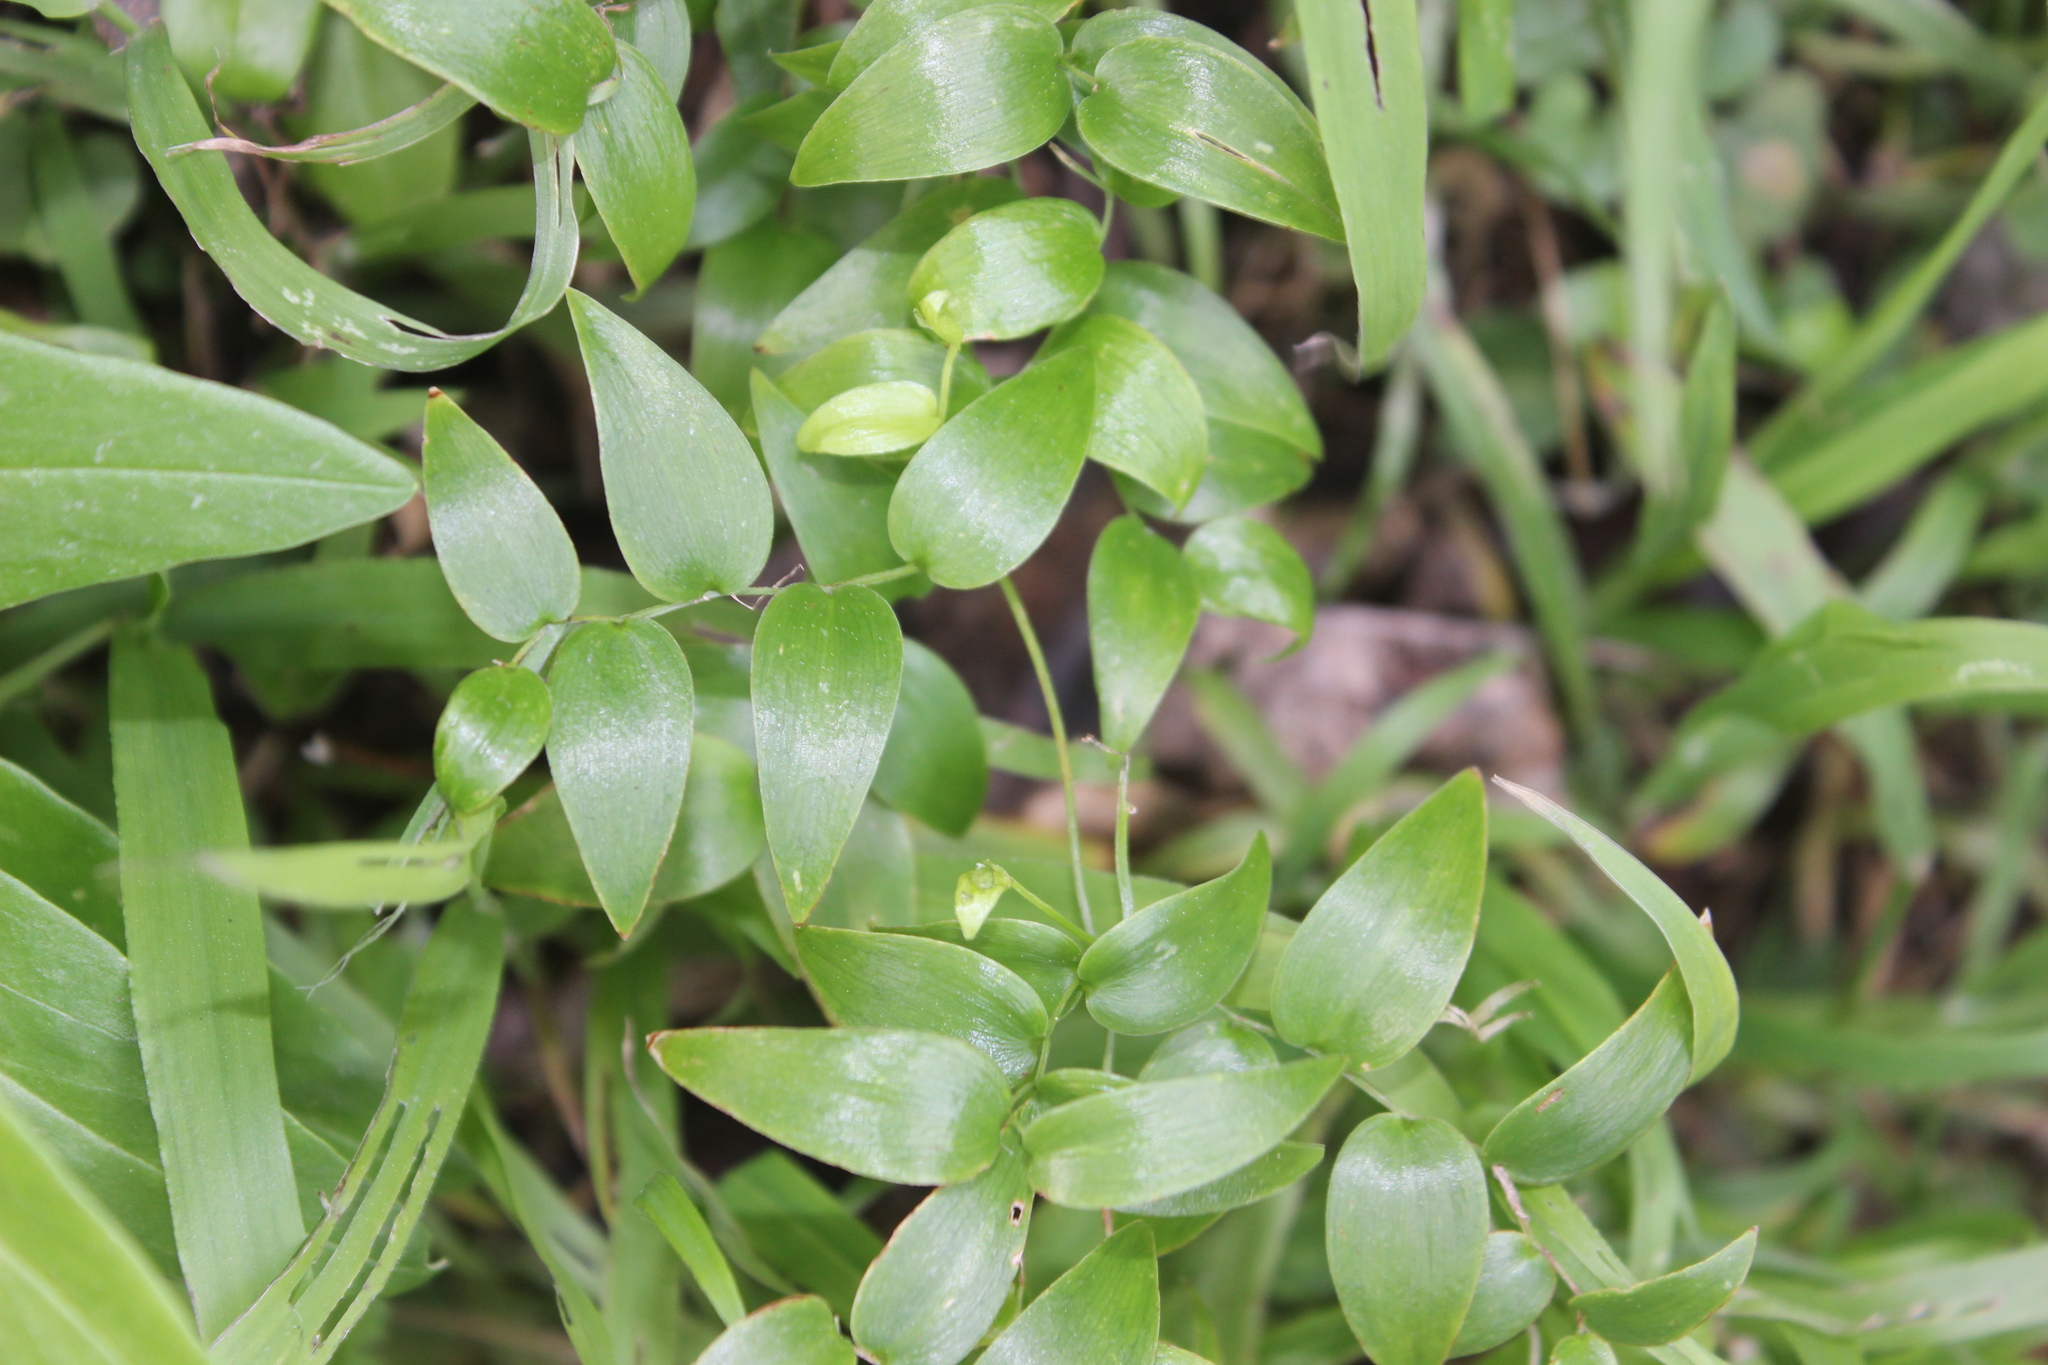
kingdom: Plantae
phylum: Tracheophyta
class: Liliopsida
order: Asparagales
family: Asparagaceae
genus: Asparagus
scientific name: Asparagus asparagoides
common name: African asparagus fern
